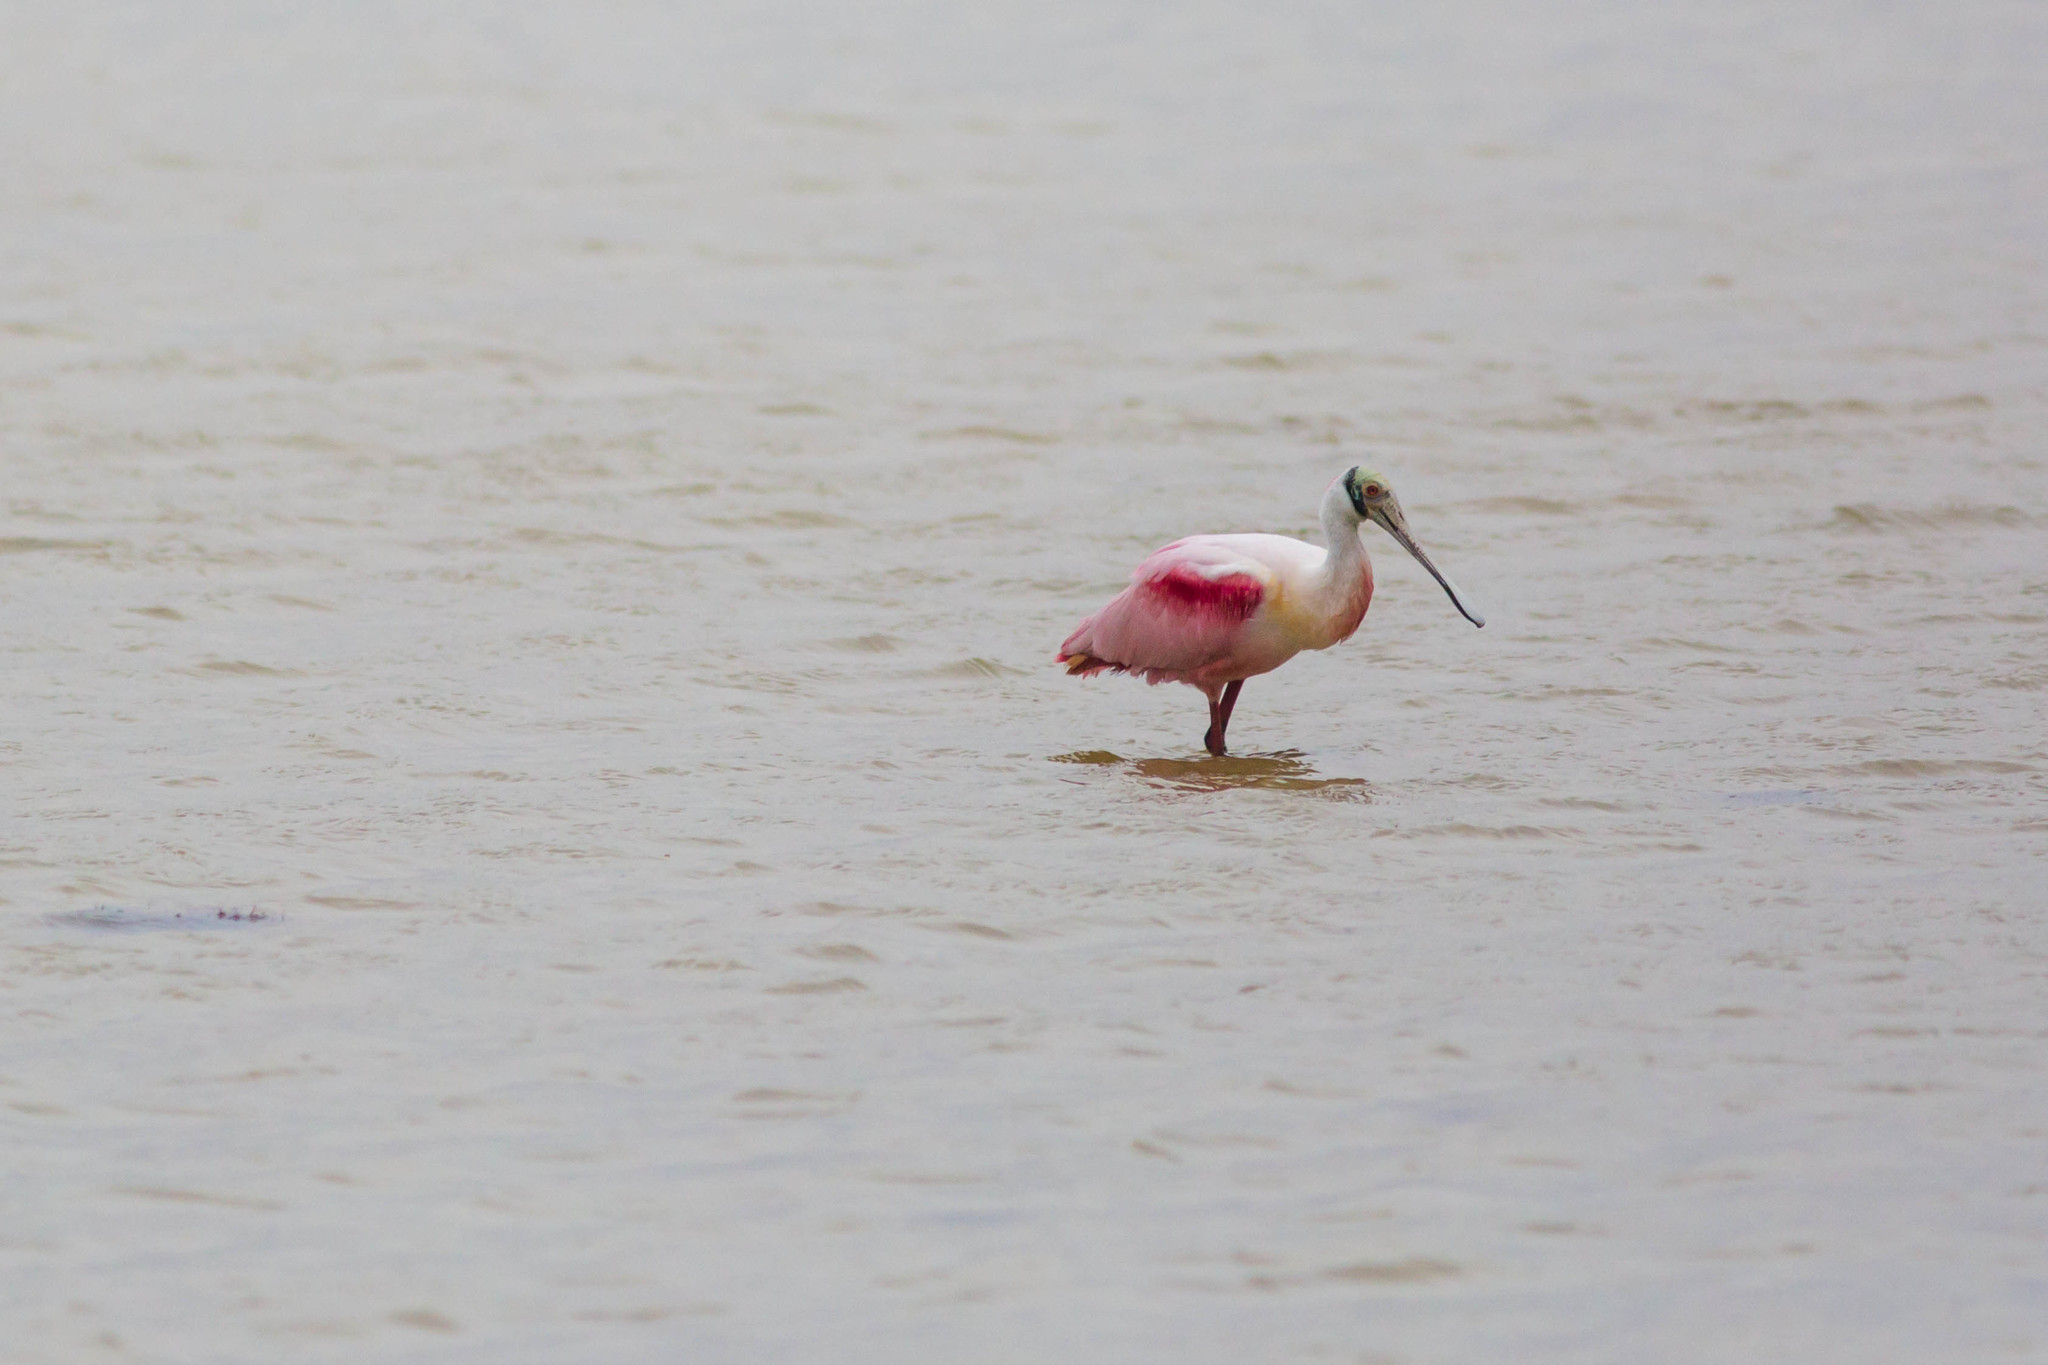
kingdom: Animalia
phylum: Chordata
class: Aves
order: Pelecaniformes
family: Threskiornithidae
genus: Platalea
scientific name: Platalea ajaja
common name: Roseate spoonbill
